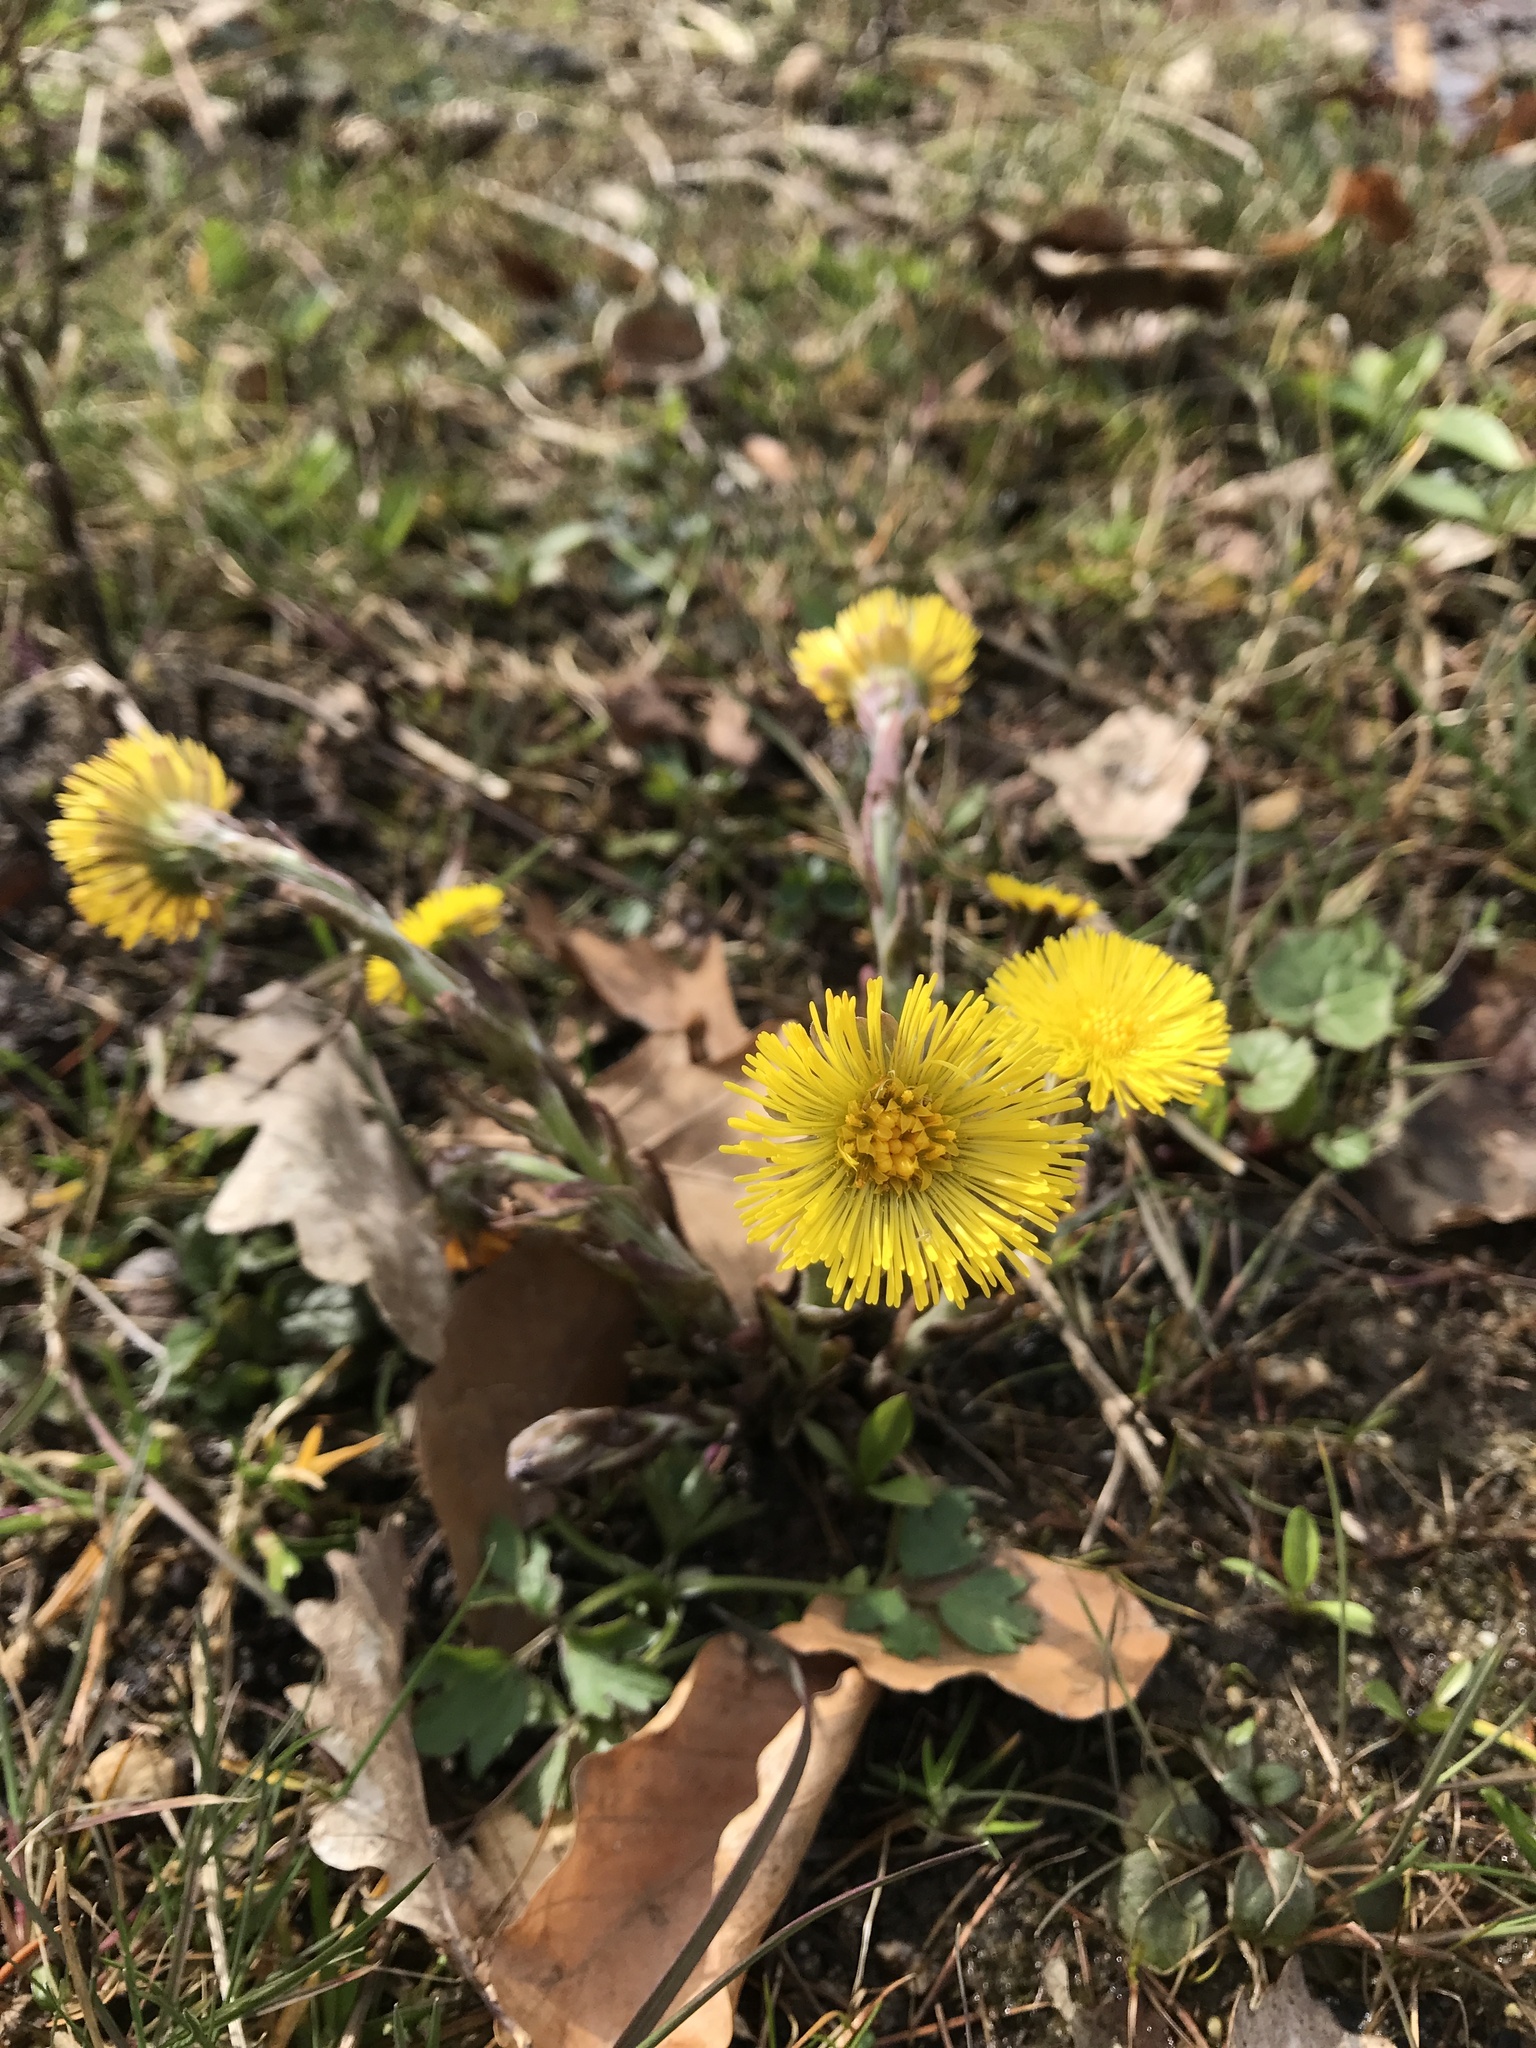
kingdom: Plantae
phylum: Tracheophyta
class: Magnoliopsida
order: Asterales
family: Asteraceae
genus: Tussilago
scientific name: Tussilago farfara
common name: Coltsfoot
